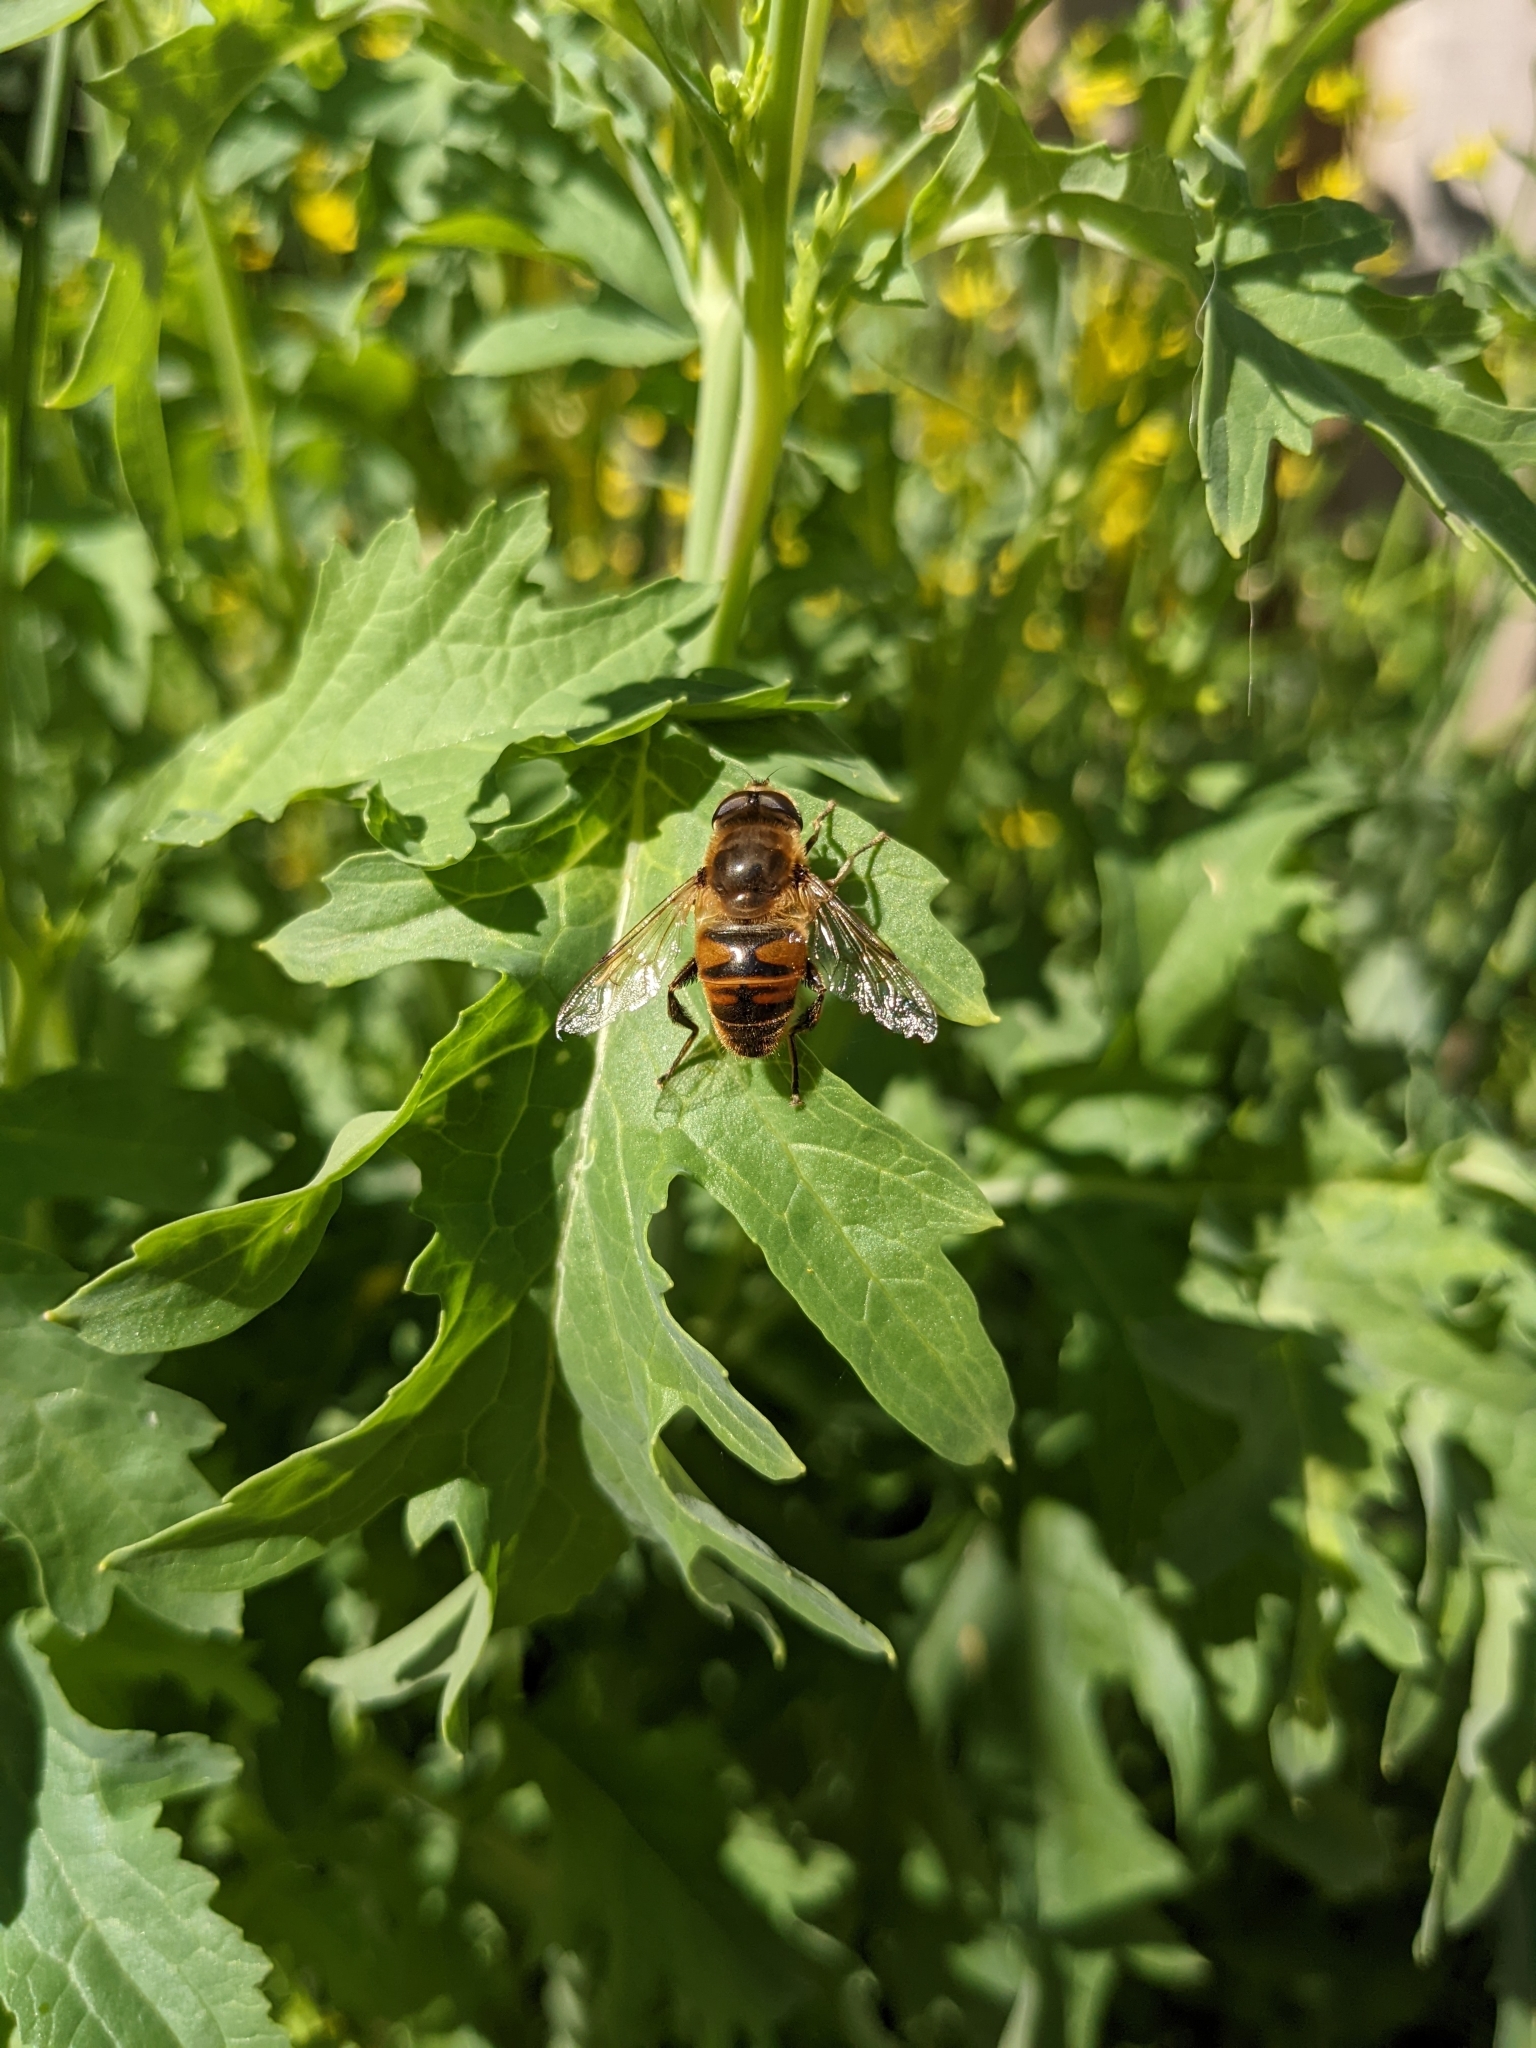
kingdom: Animalia
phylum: Arthropoda
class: Insecta
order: Diptera
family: Syrphidae
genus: Eristalis
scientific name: Eristalis tenax
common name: Drone fly
